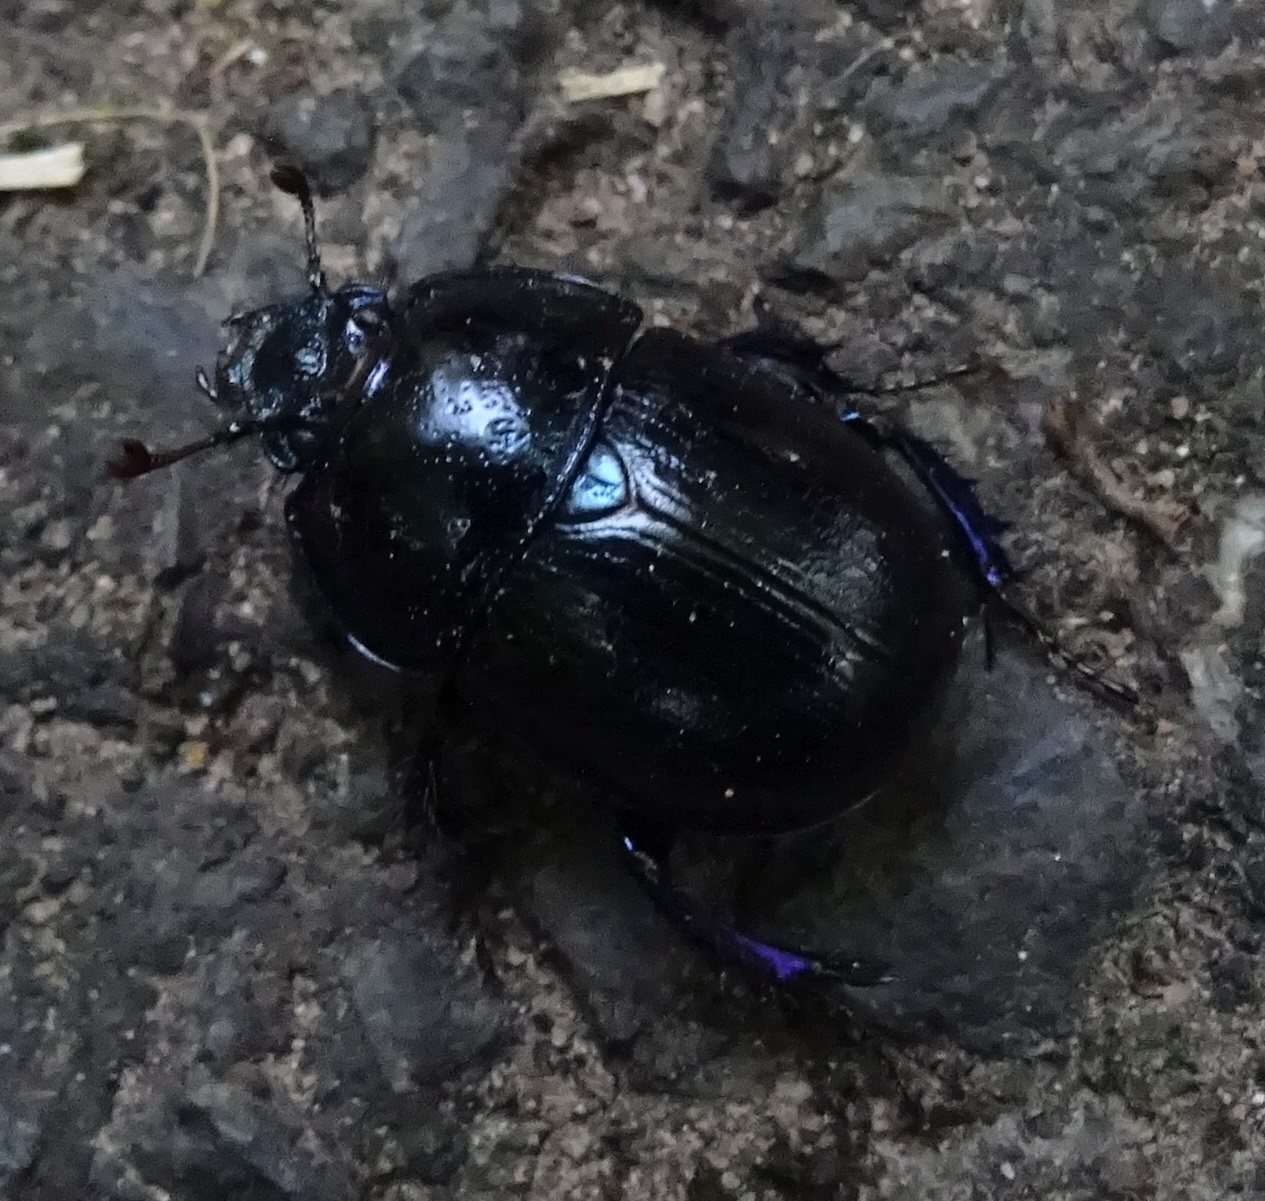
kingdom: Animalia
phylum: Arthropoda
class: Insecta
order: Coleoptera
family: Geotrupidae
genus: Anoplotrupes
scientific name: Anoplotrupes stercorosus
